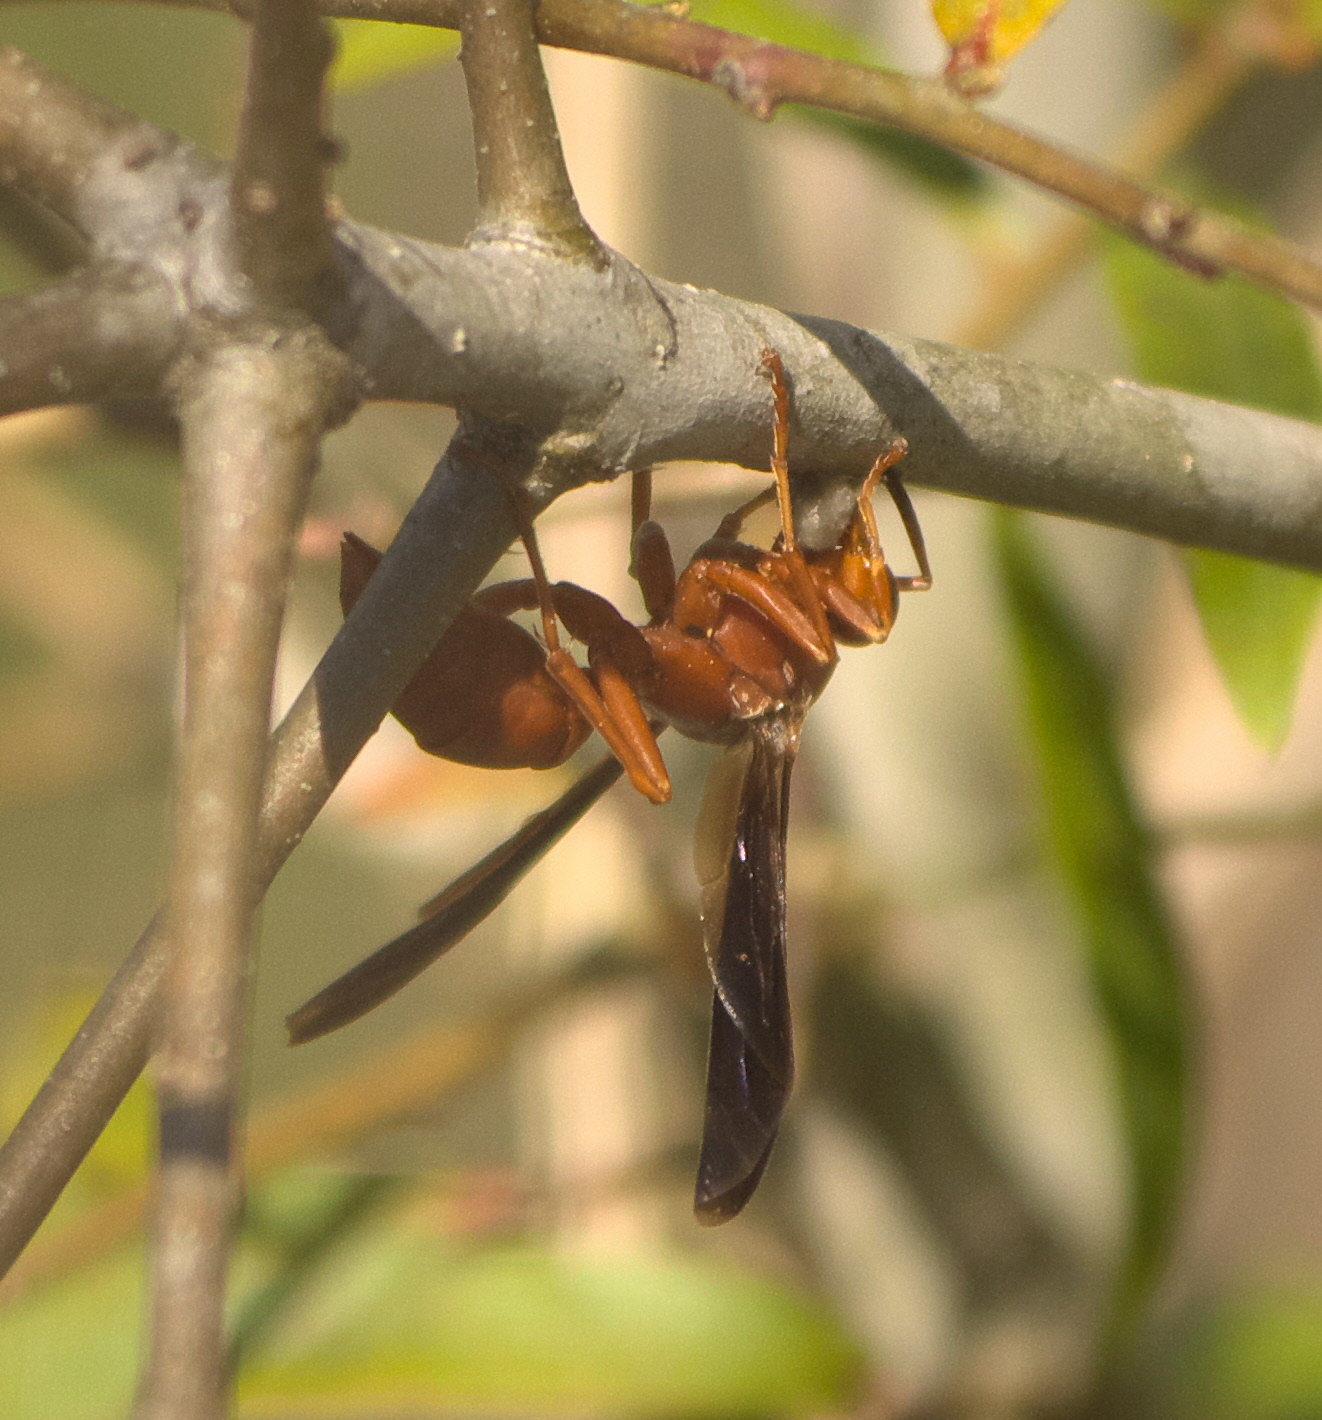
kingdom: Animalia
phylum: Arthropoda
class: Insecta
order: Hymenoptera
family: Vespidae
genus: Fuscopolistes
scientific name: Fuscopolistes
